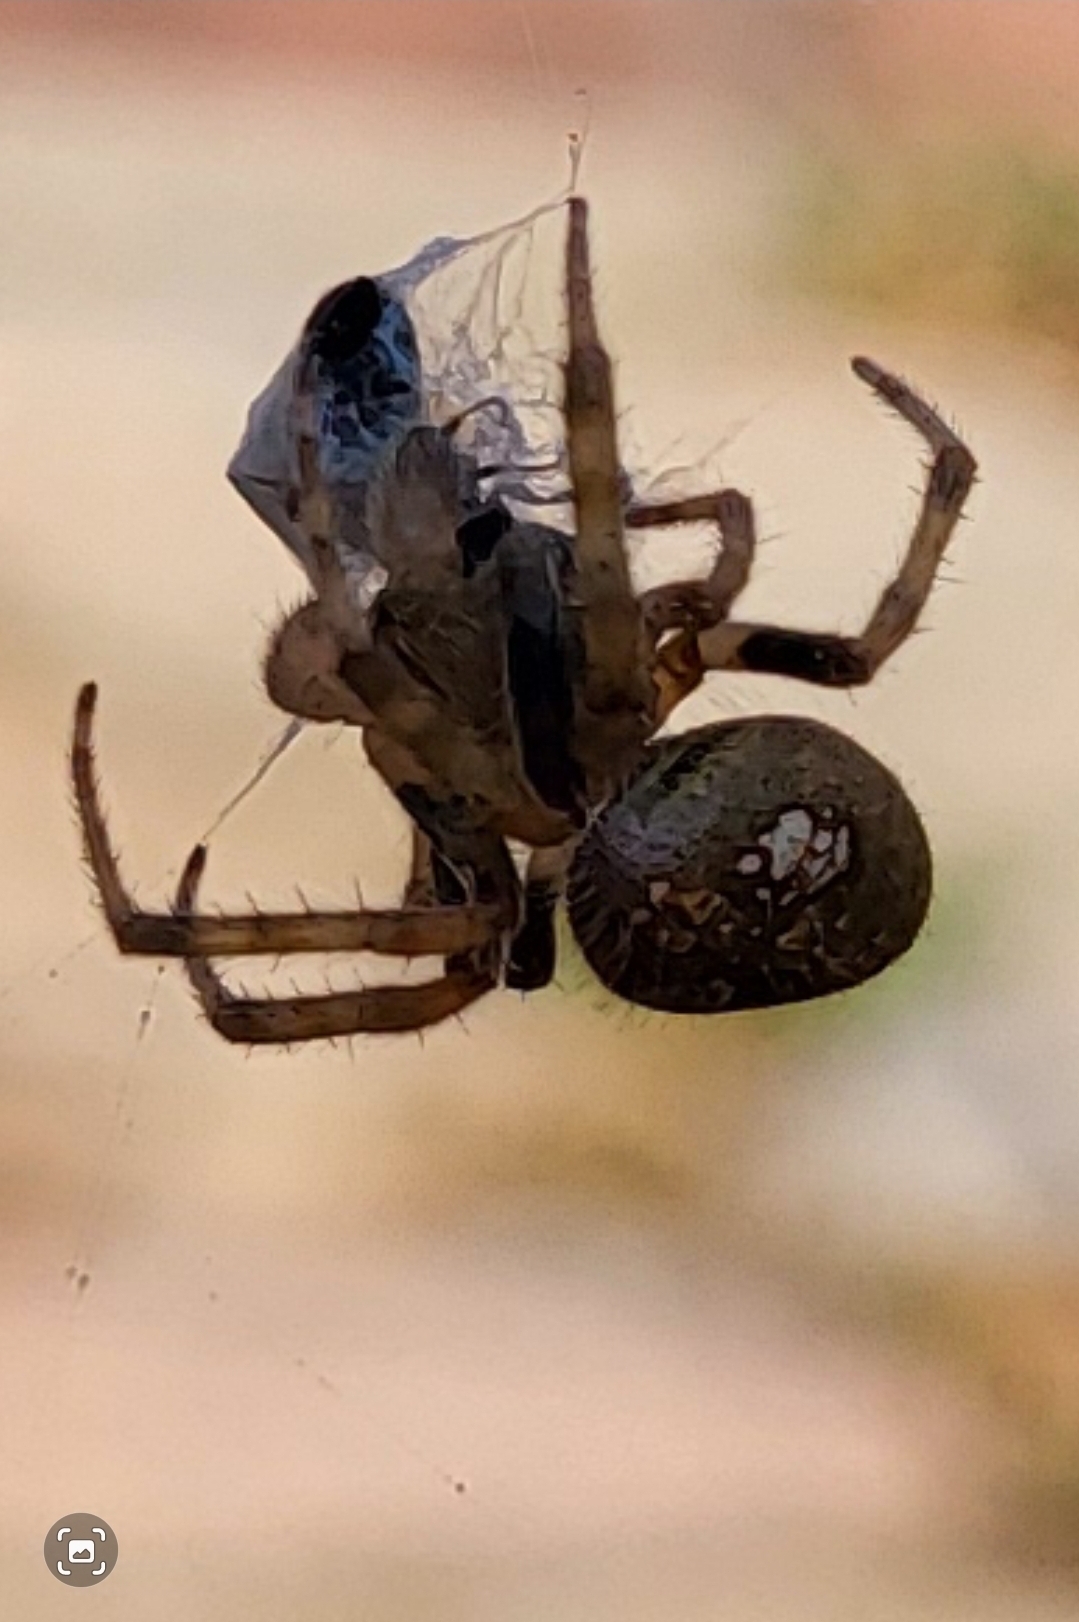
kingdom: Animalia
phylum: Arthropoda
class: Arachnida
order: Araneae
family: Araneidae
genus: Eriophora
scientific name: Eriophora ravilla
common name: Orb weavers
